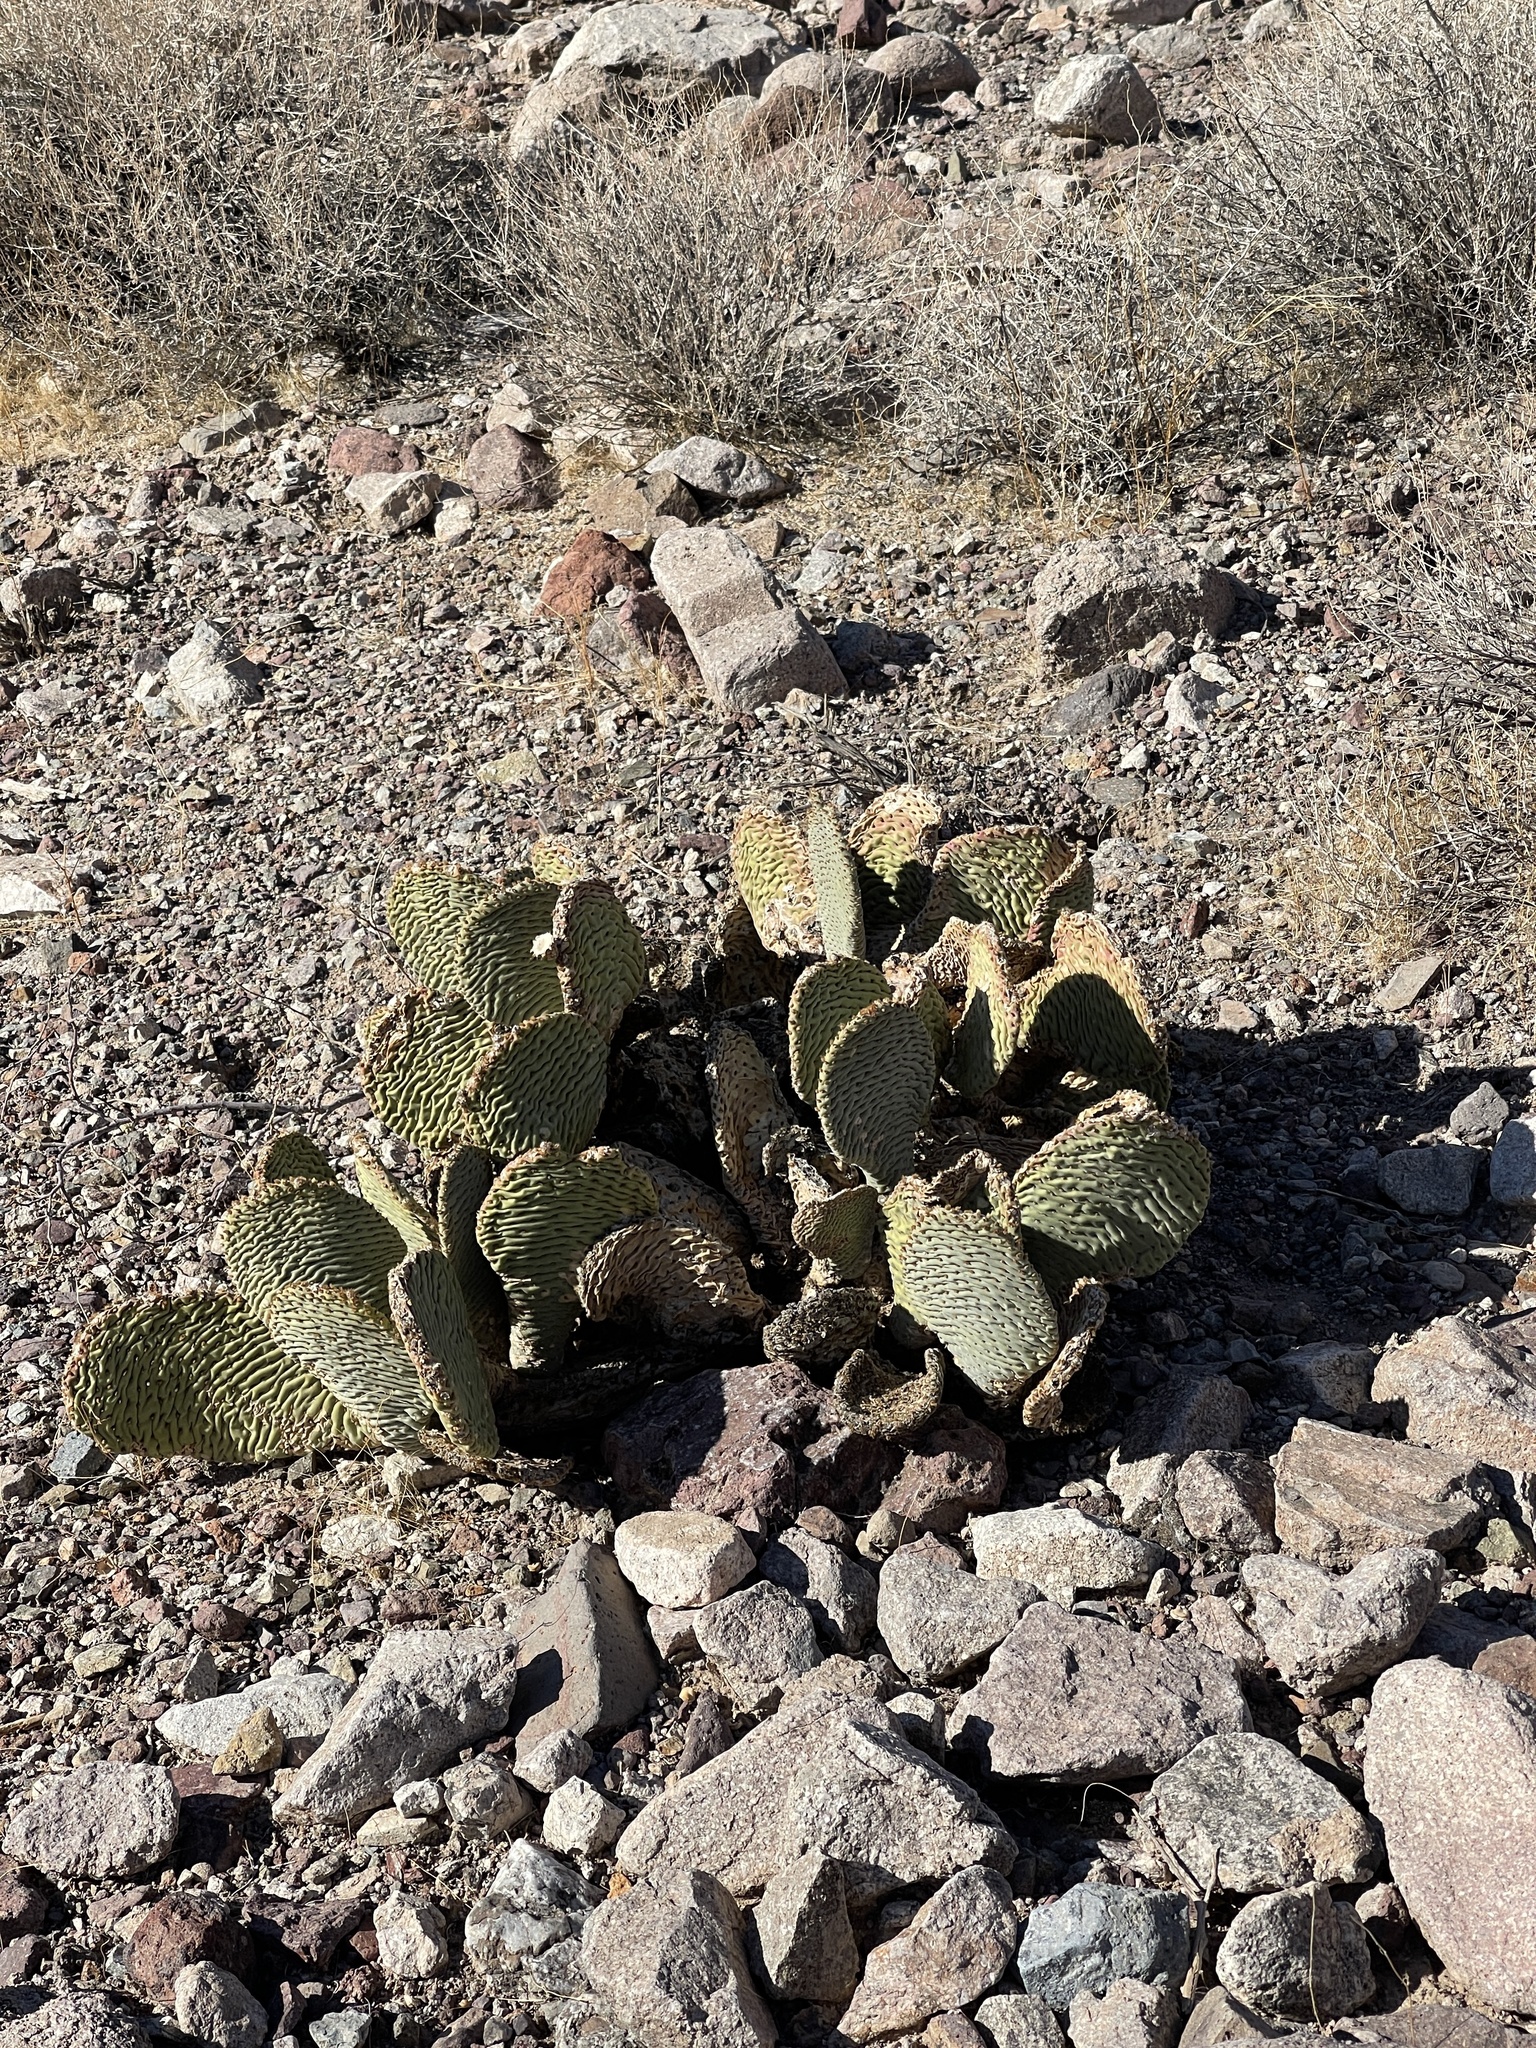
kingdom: Plantae
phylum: Tracheophyta
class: Magnoliopsida
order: Caryophyllales
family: Cactaceae
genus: Opuntia
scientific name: Opuntia basilaris
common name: Beavertail prickly-pear
